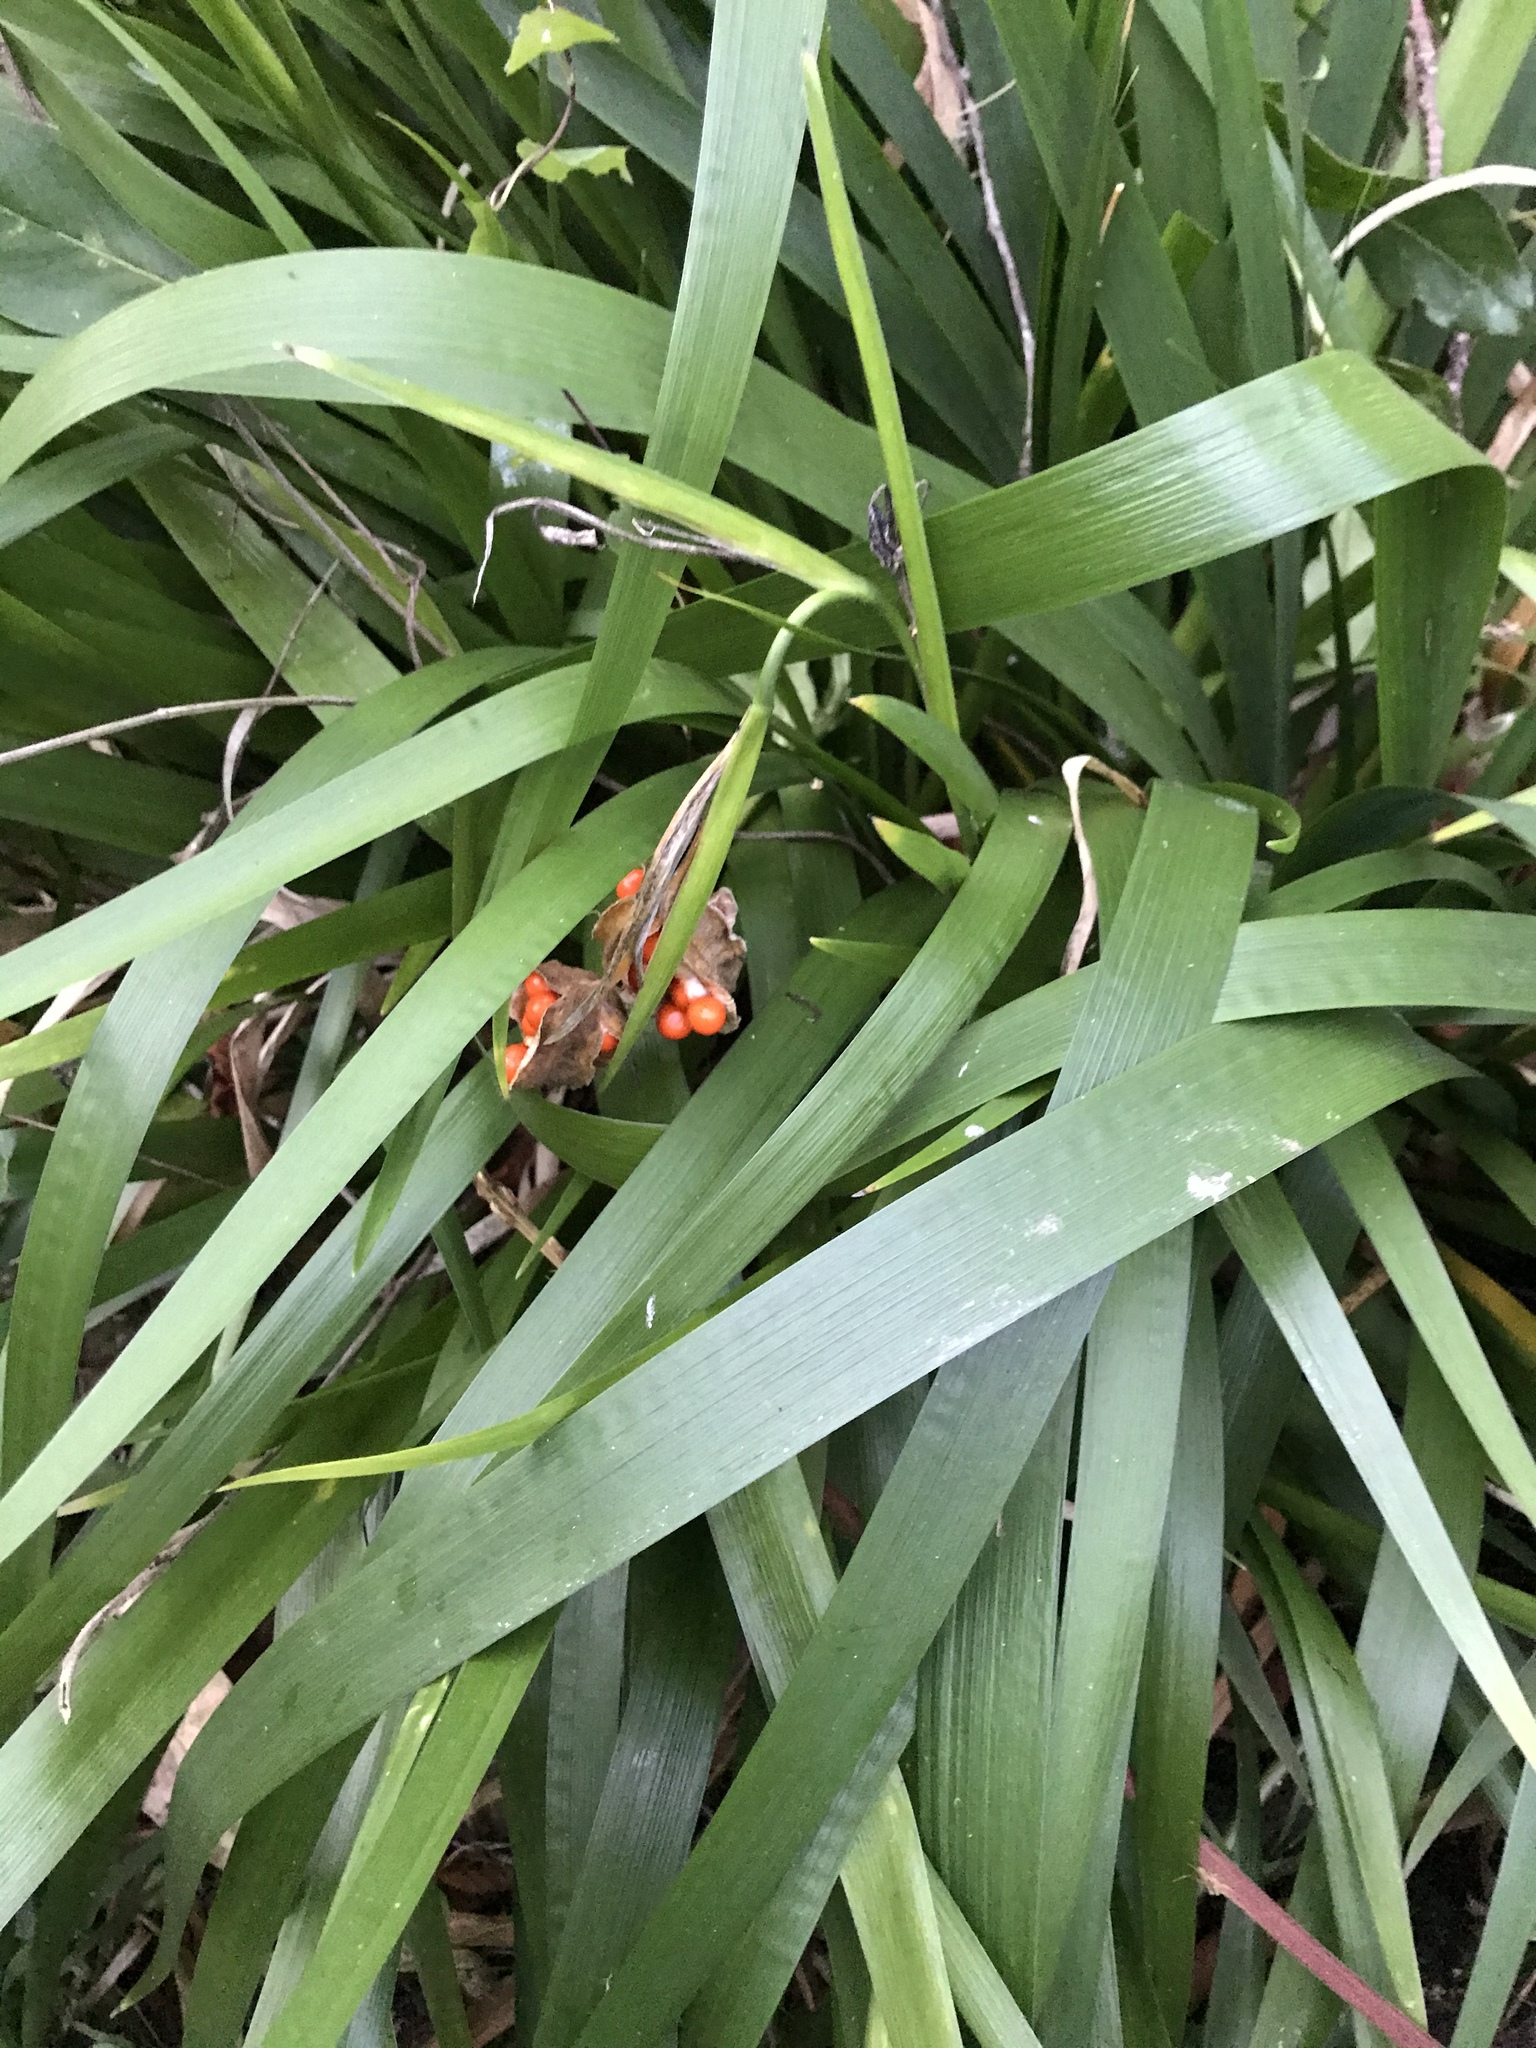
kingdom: Plantae
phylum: Tracheophyta
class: Liliopsida
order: Asparagales
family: Iridaceae
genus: Iris
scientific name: Iris foetidissima
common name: Stinking iris
